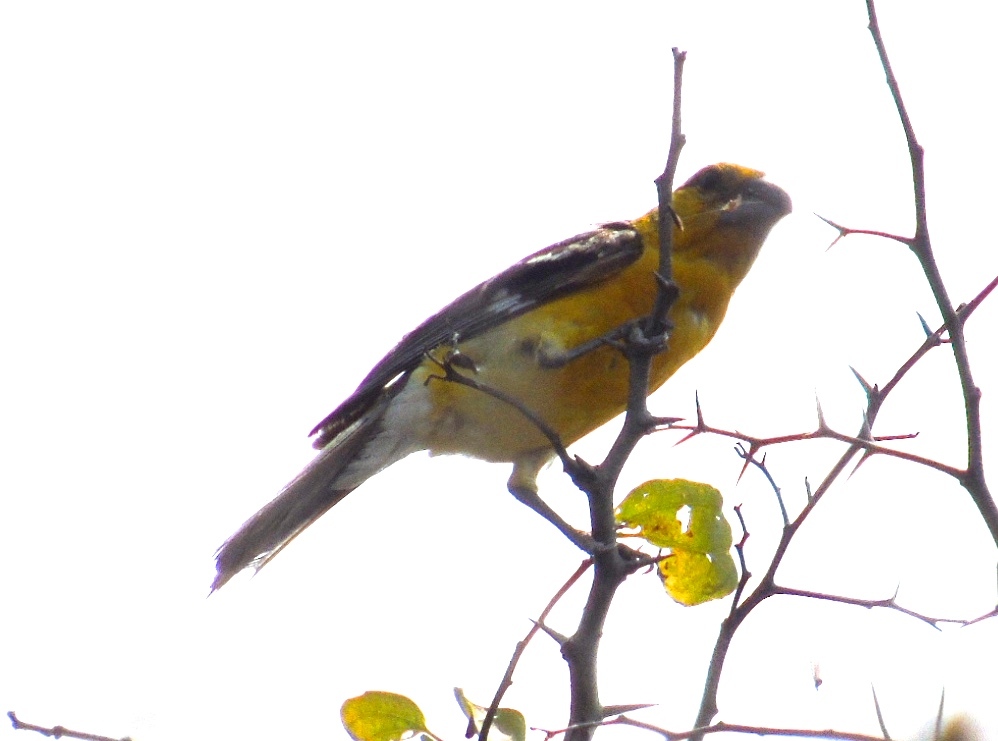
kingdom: Animalia
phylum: Chordata
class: Aves
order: Passeriformes
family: Cardinalidae
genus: Pheucticus
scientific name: Pheucticus chrysopeplus
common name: Yellow grosbeak
